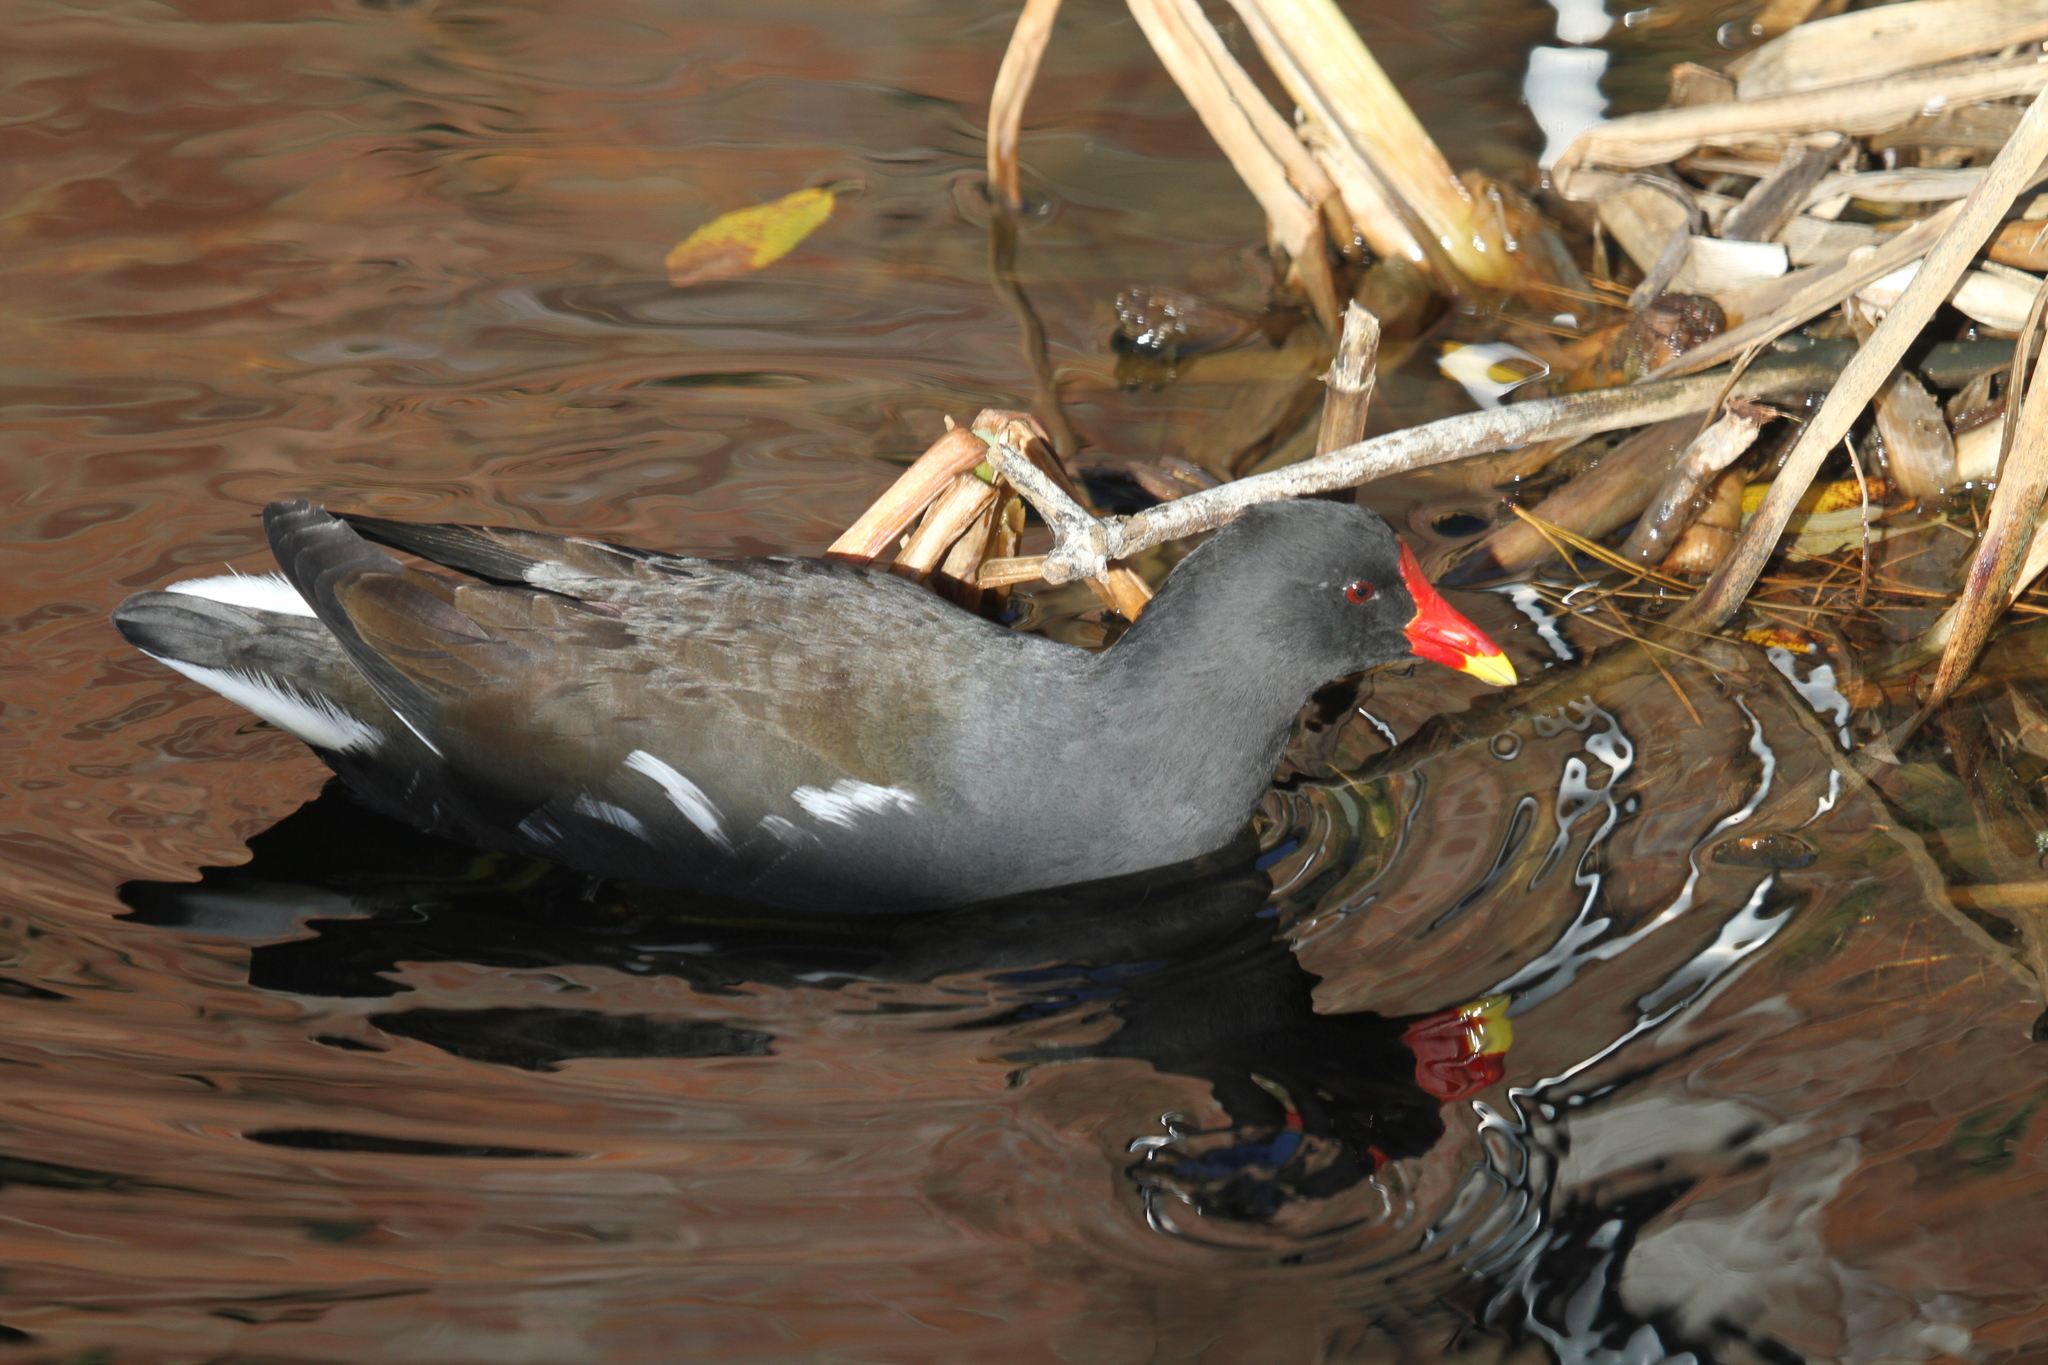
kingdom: Animalia
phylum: Chordata
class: Aves
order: Gruiformes
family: Rallidae
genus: Gallinula
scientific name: Gallinula chloropus
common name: Common moorhen
